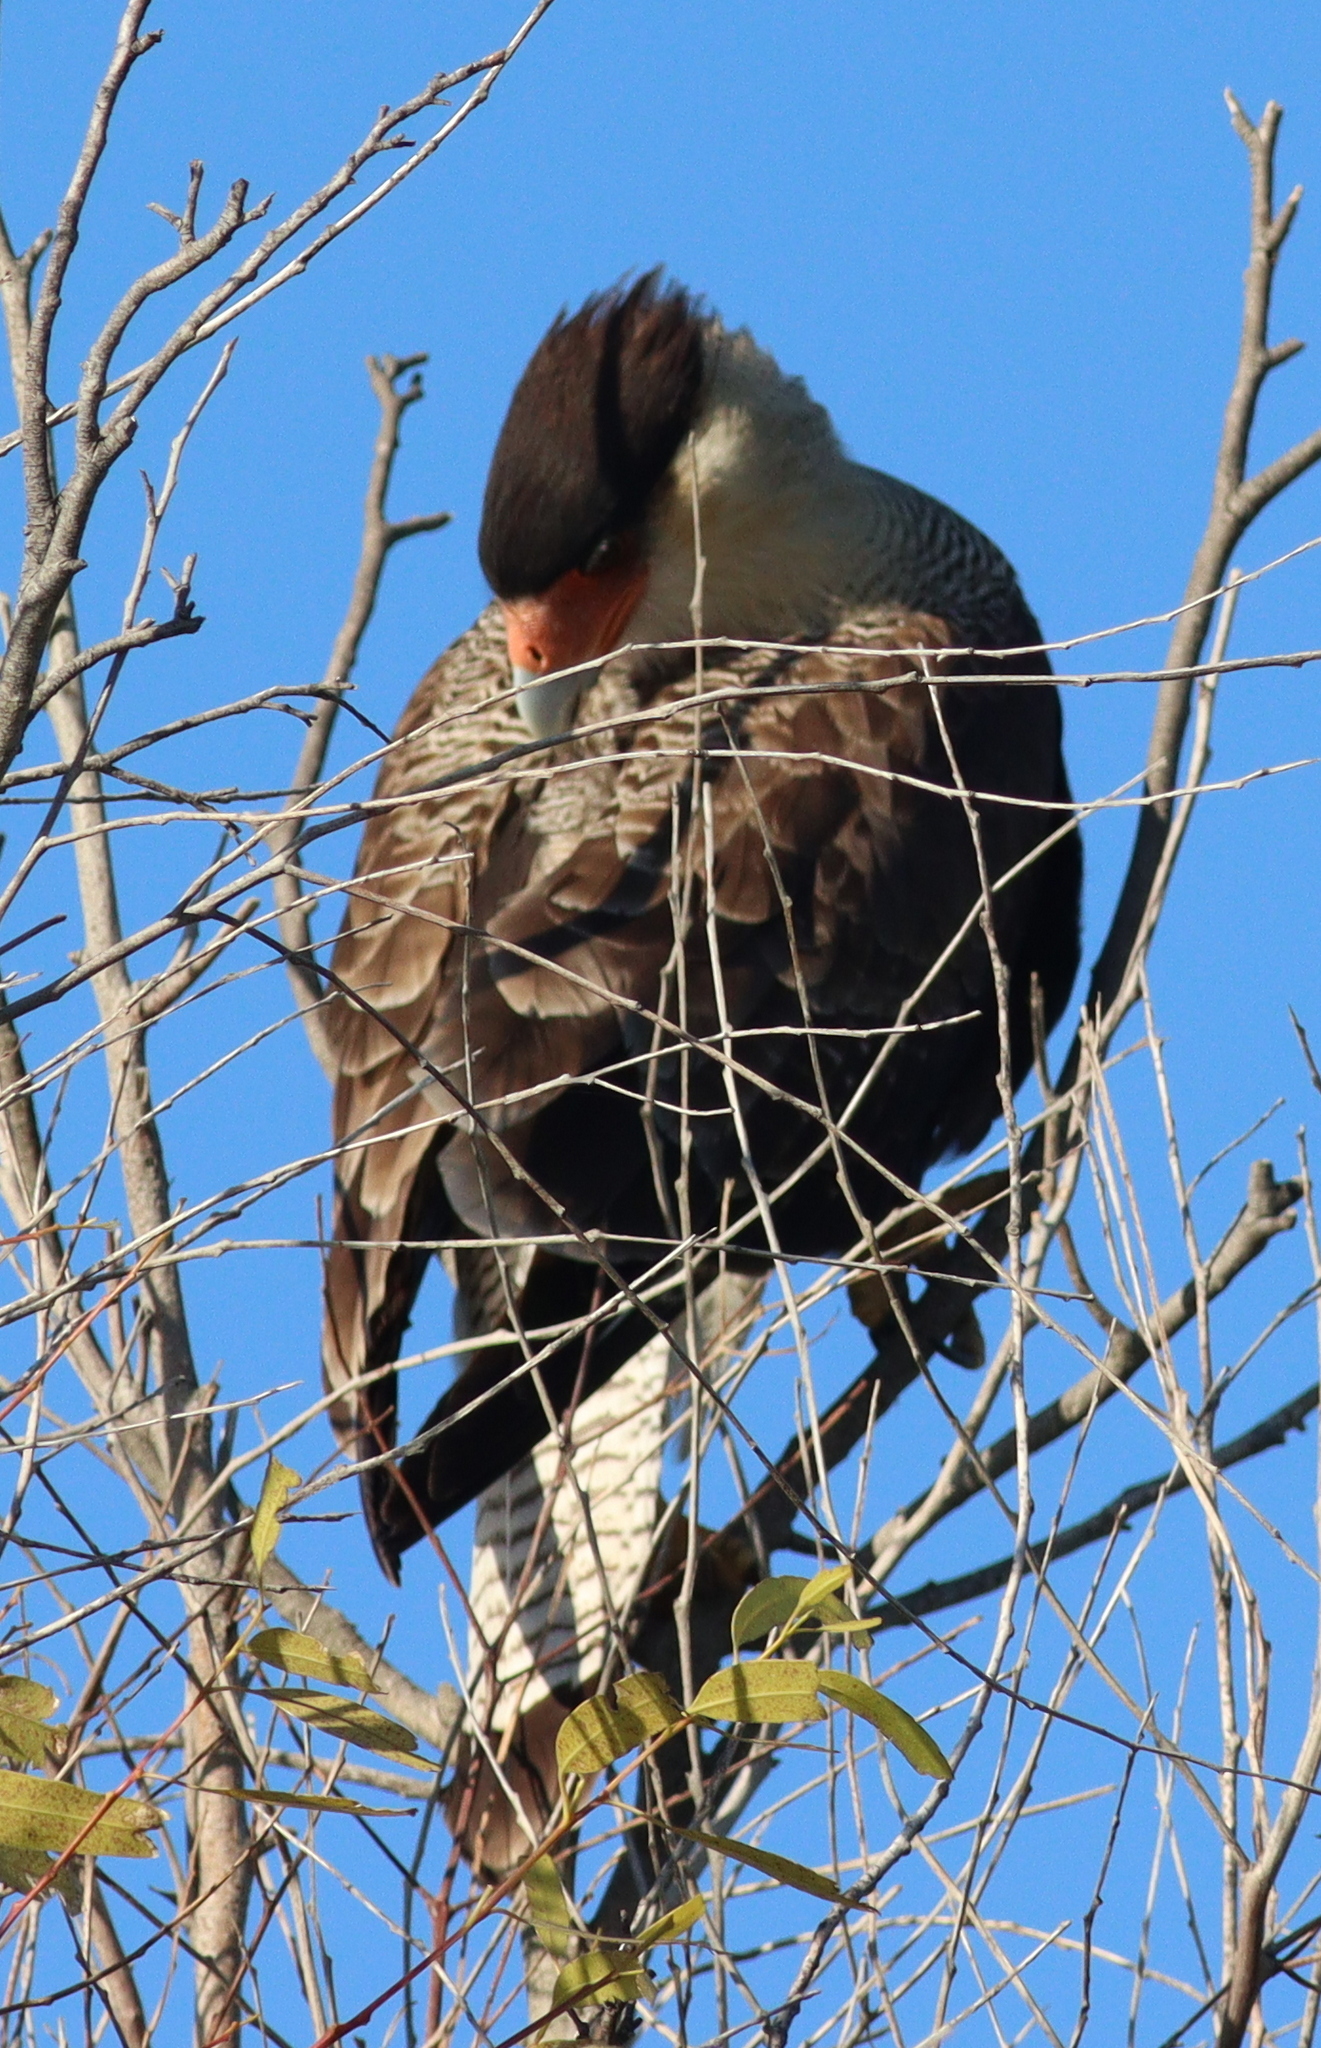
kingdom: Animalia
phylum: Chordata
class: Aves
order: Falconiformes
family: Falconidae
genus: Caracara
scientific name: Caracara plancus
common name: Southern caracara
